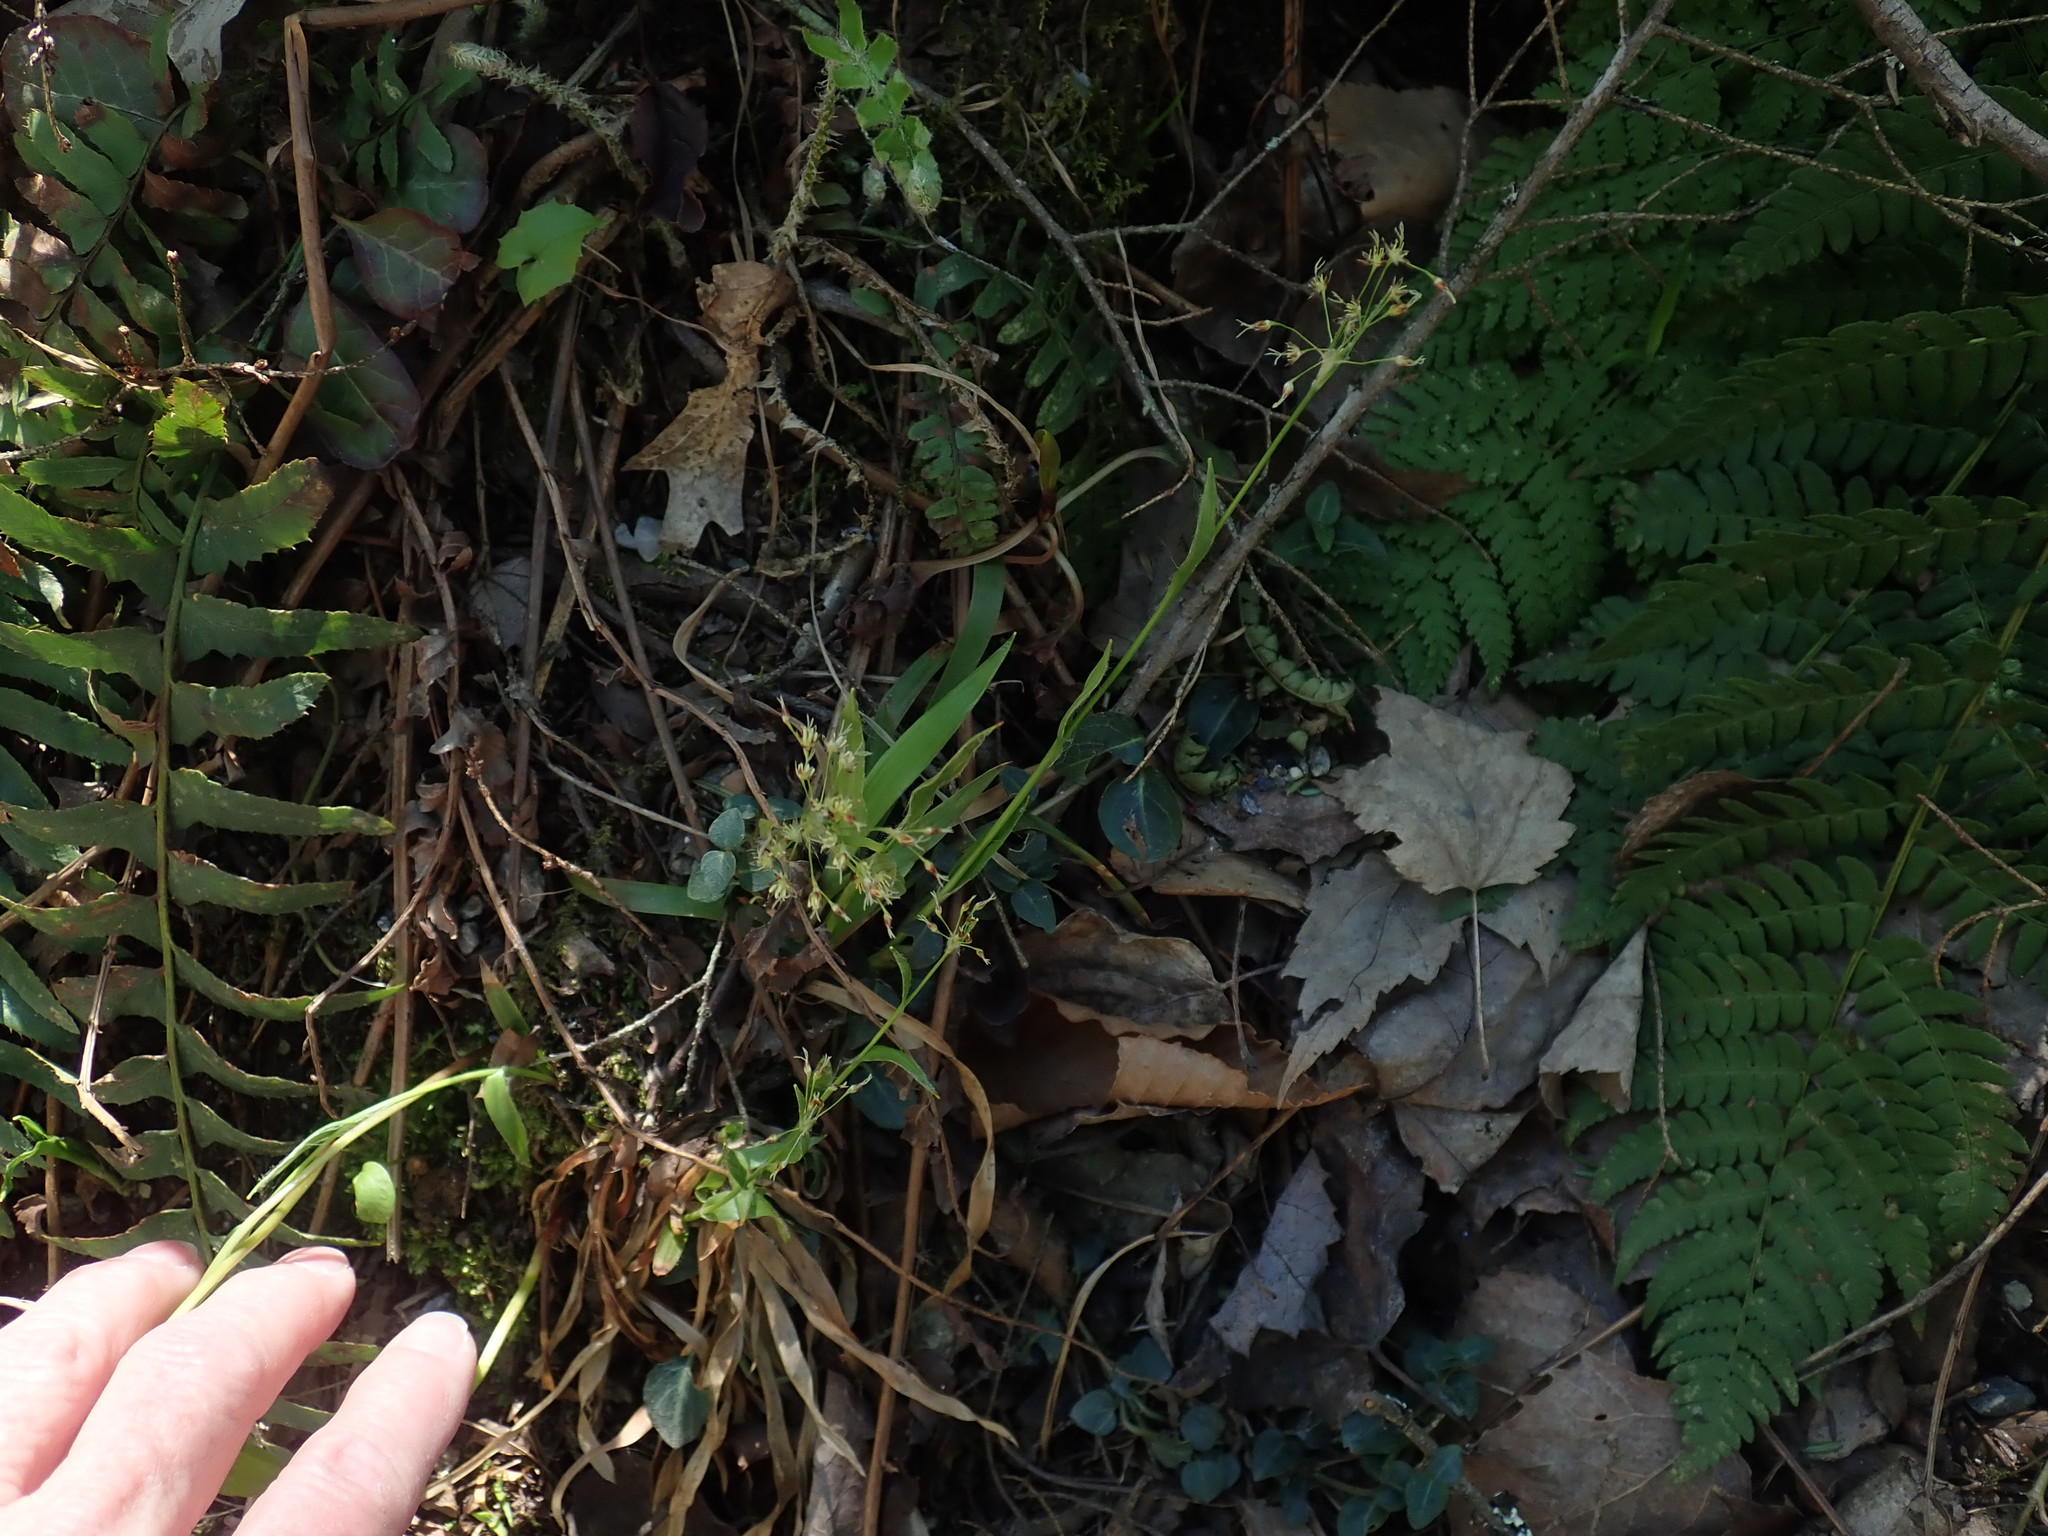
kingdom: Plantae
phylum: Tracheophyta
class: Liliopsida
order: Poales
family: Juncaceae
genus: Luzula
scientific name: Luzula acuminata
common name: Hairy woodrush
